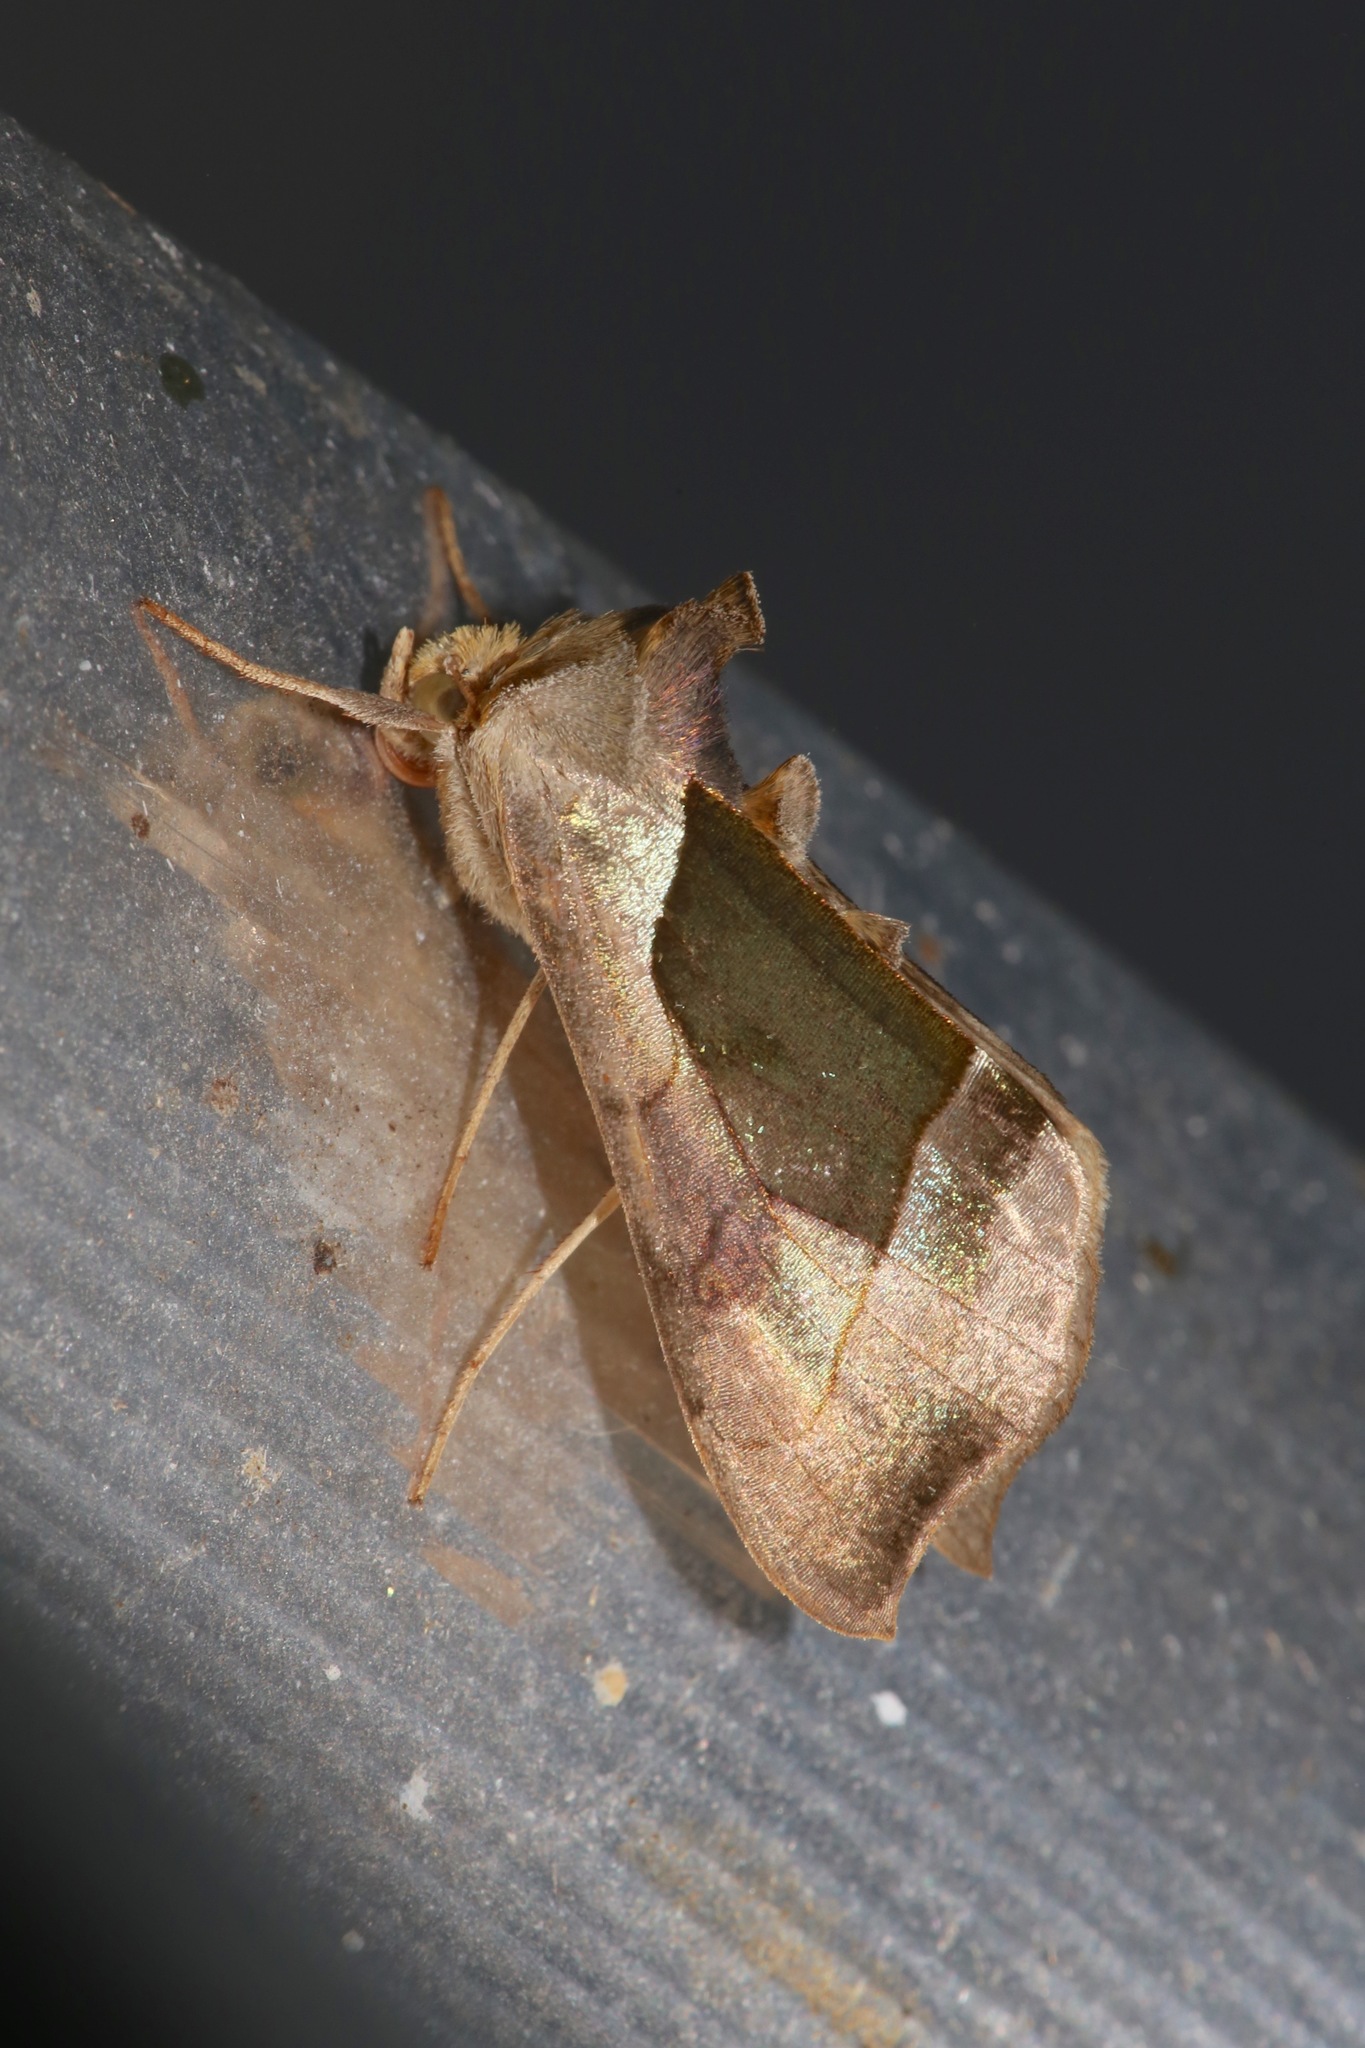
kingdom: Animalia
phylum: Arthropoda
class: Insecta
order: Lepidoptera
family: Noctuidae
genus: Diachrysia
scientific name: Diachrysia balluca
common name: Green-patched looper moth
